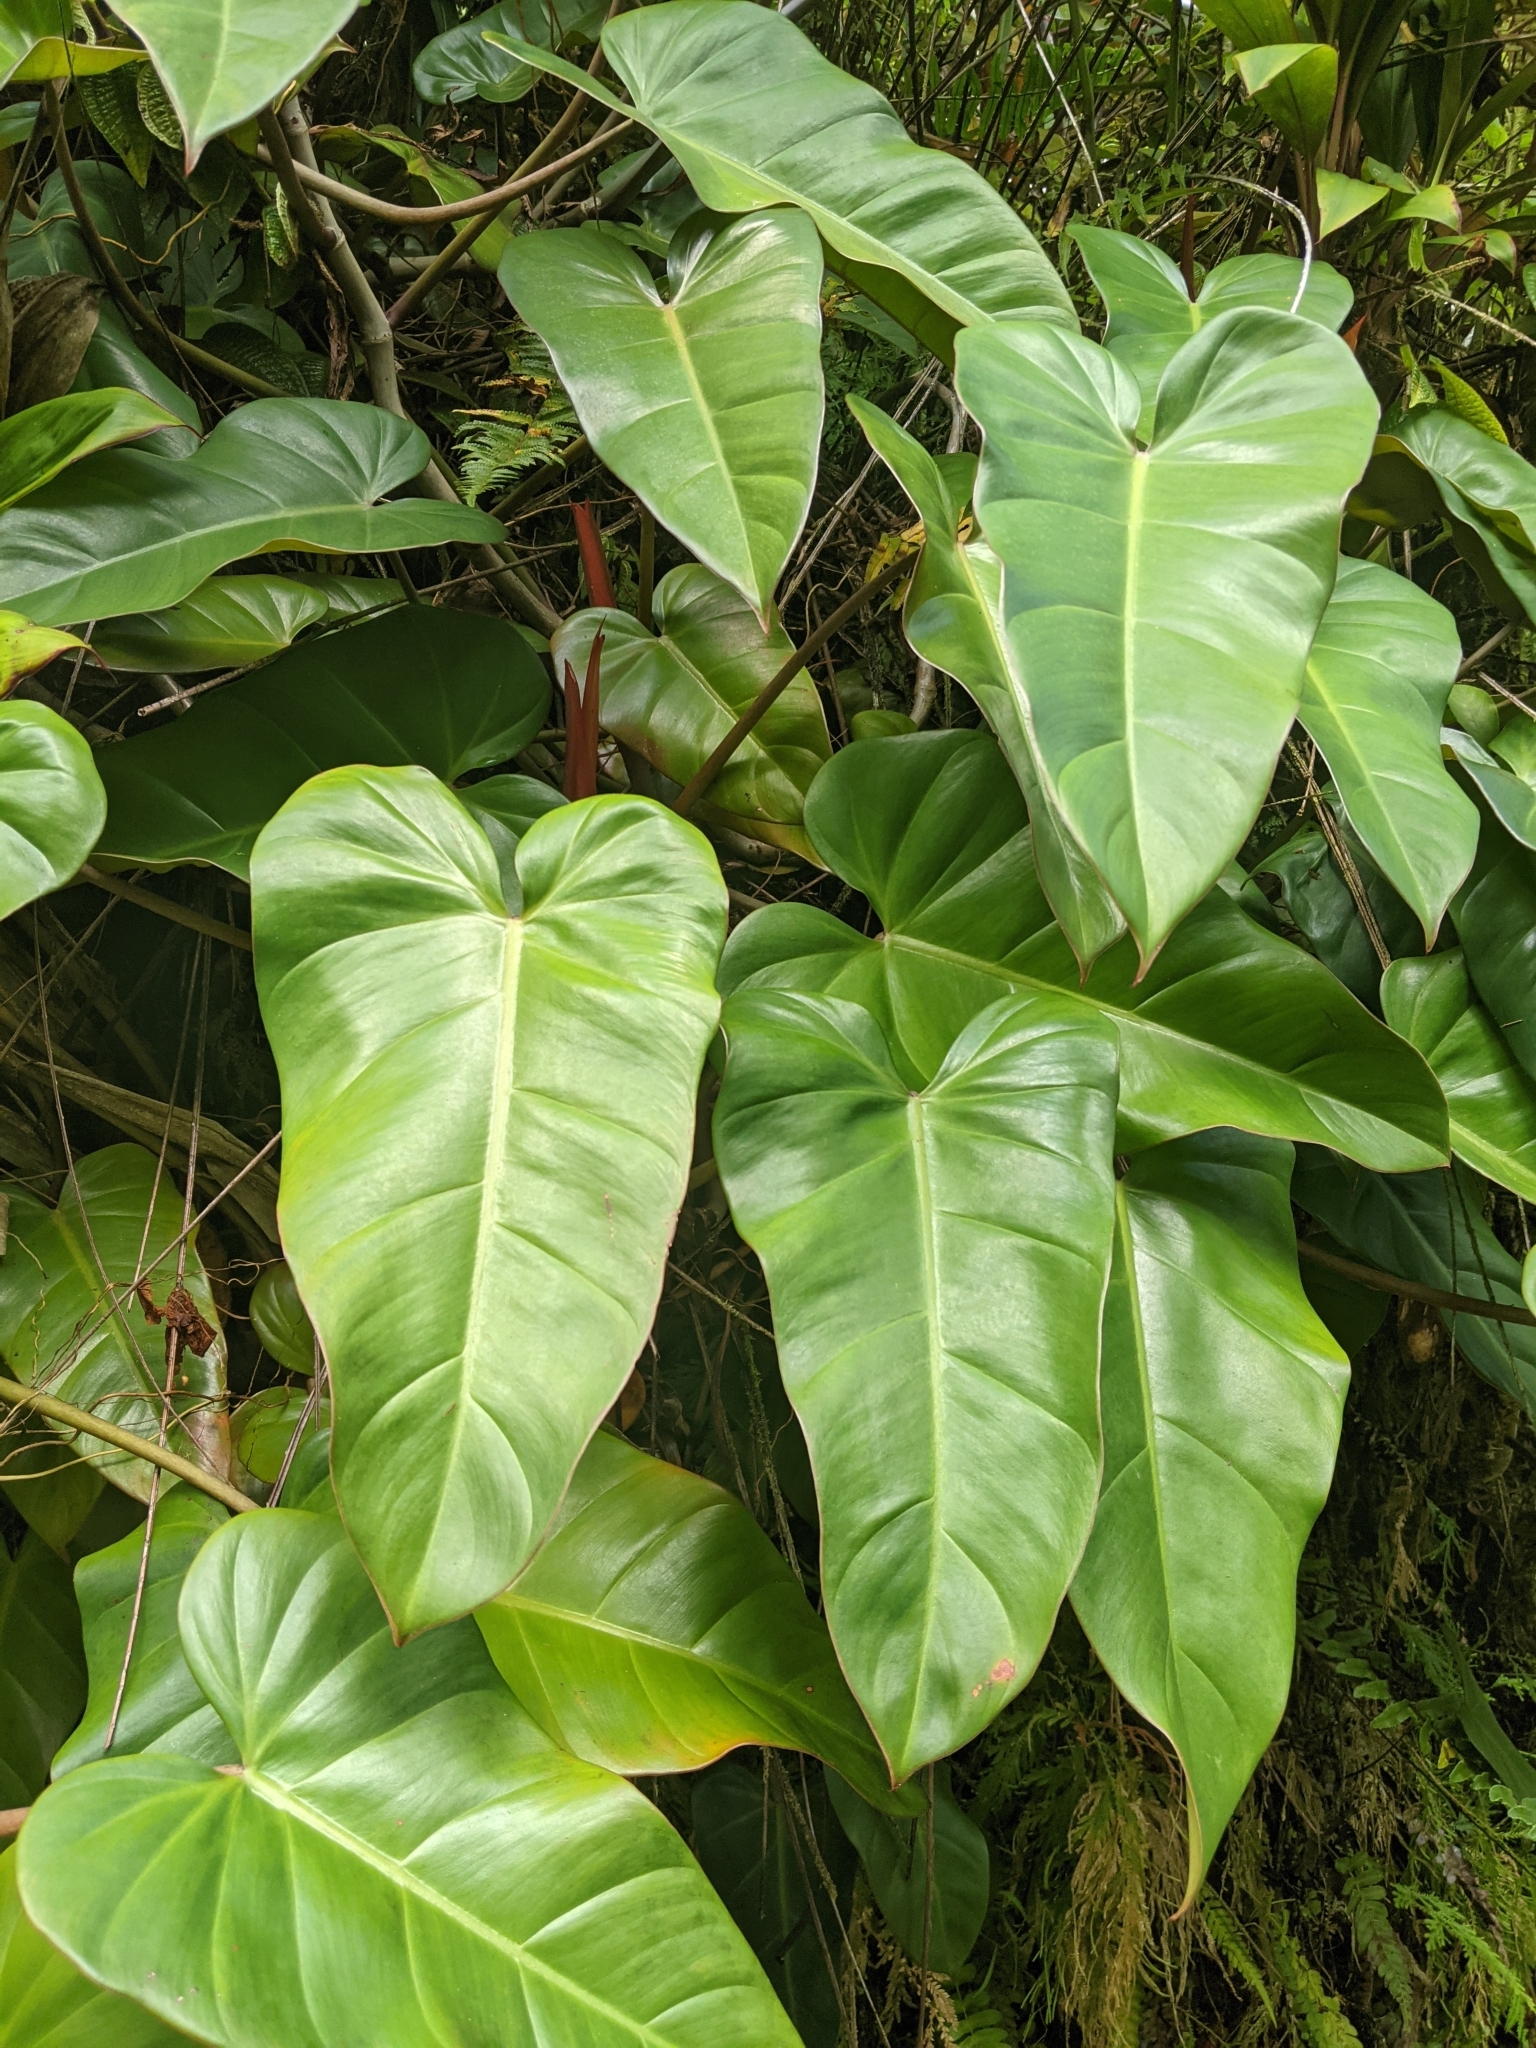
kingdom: Plantae
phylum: Tracheophyta
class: Liliopsida
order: Alismatales
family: Araceae
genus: Philodendron
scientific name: Philodendron erubescens
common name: Philodendron
